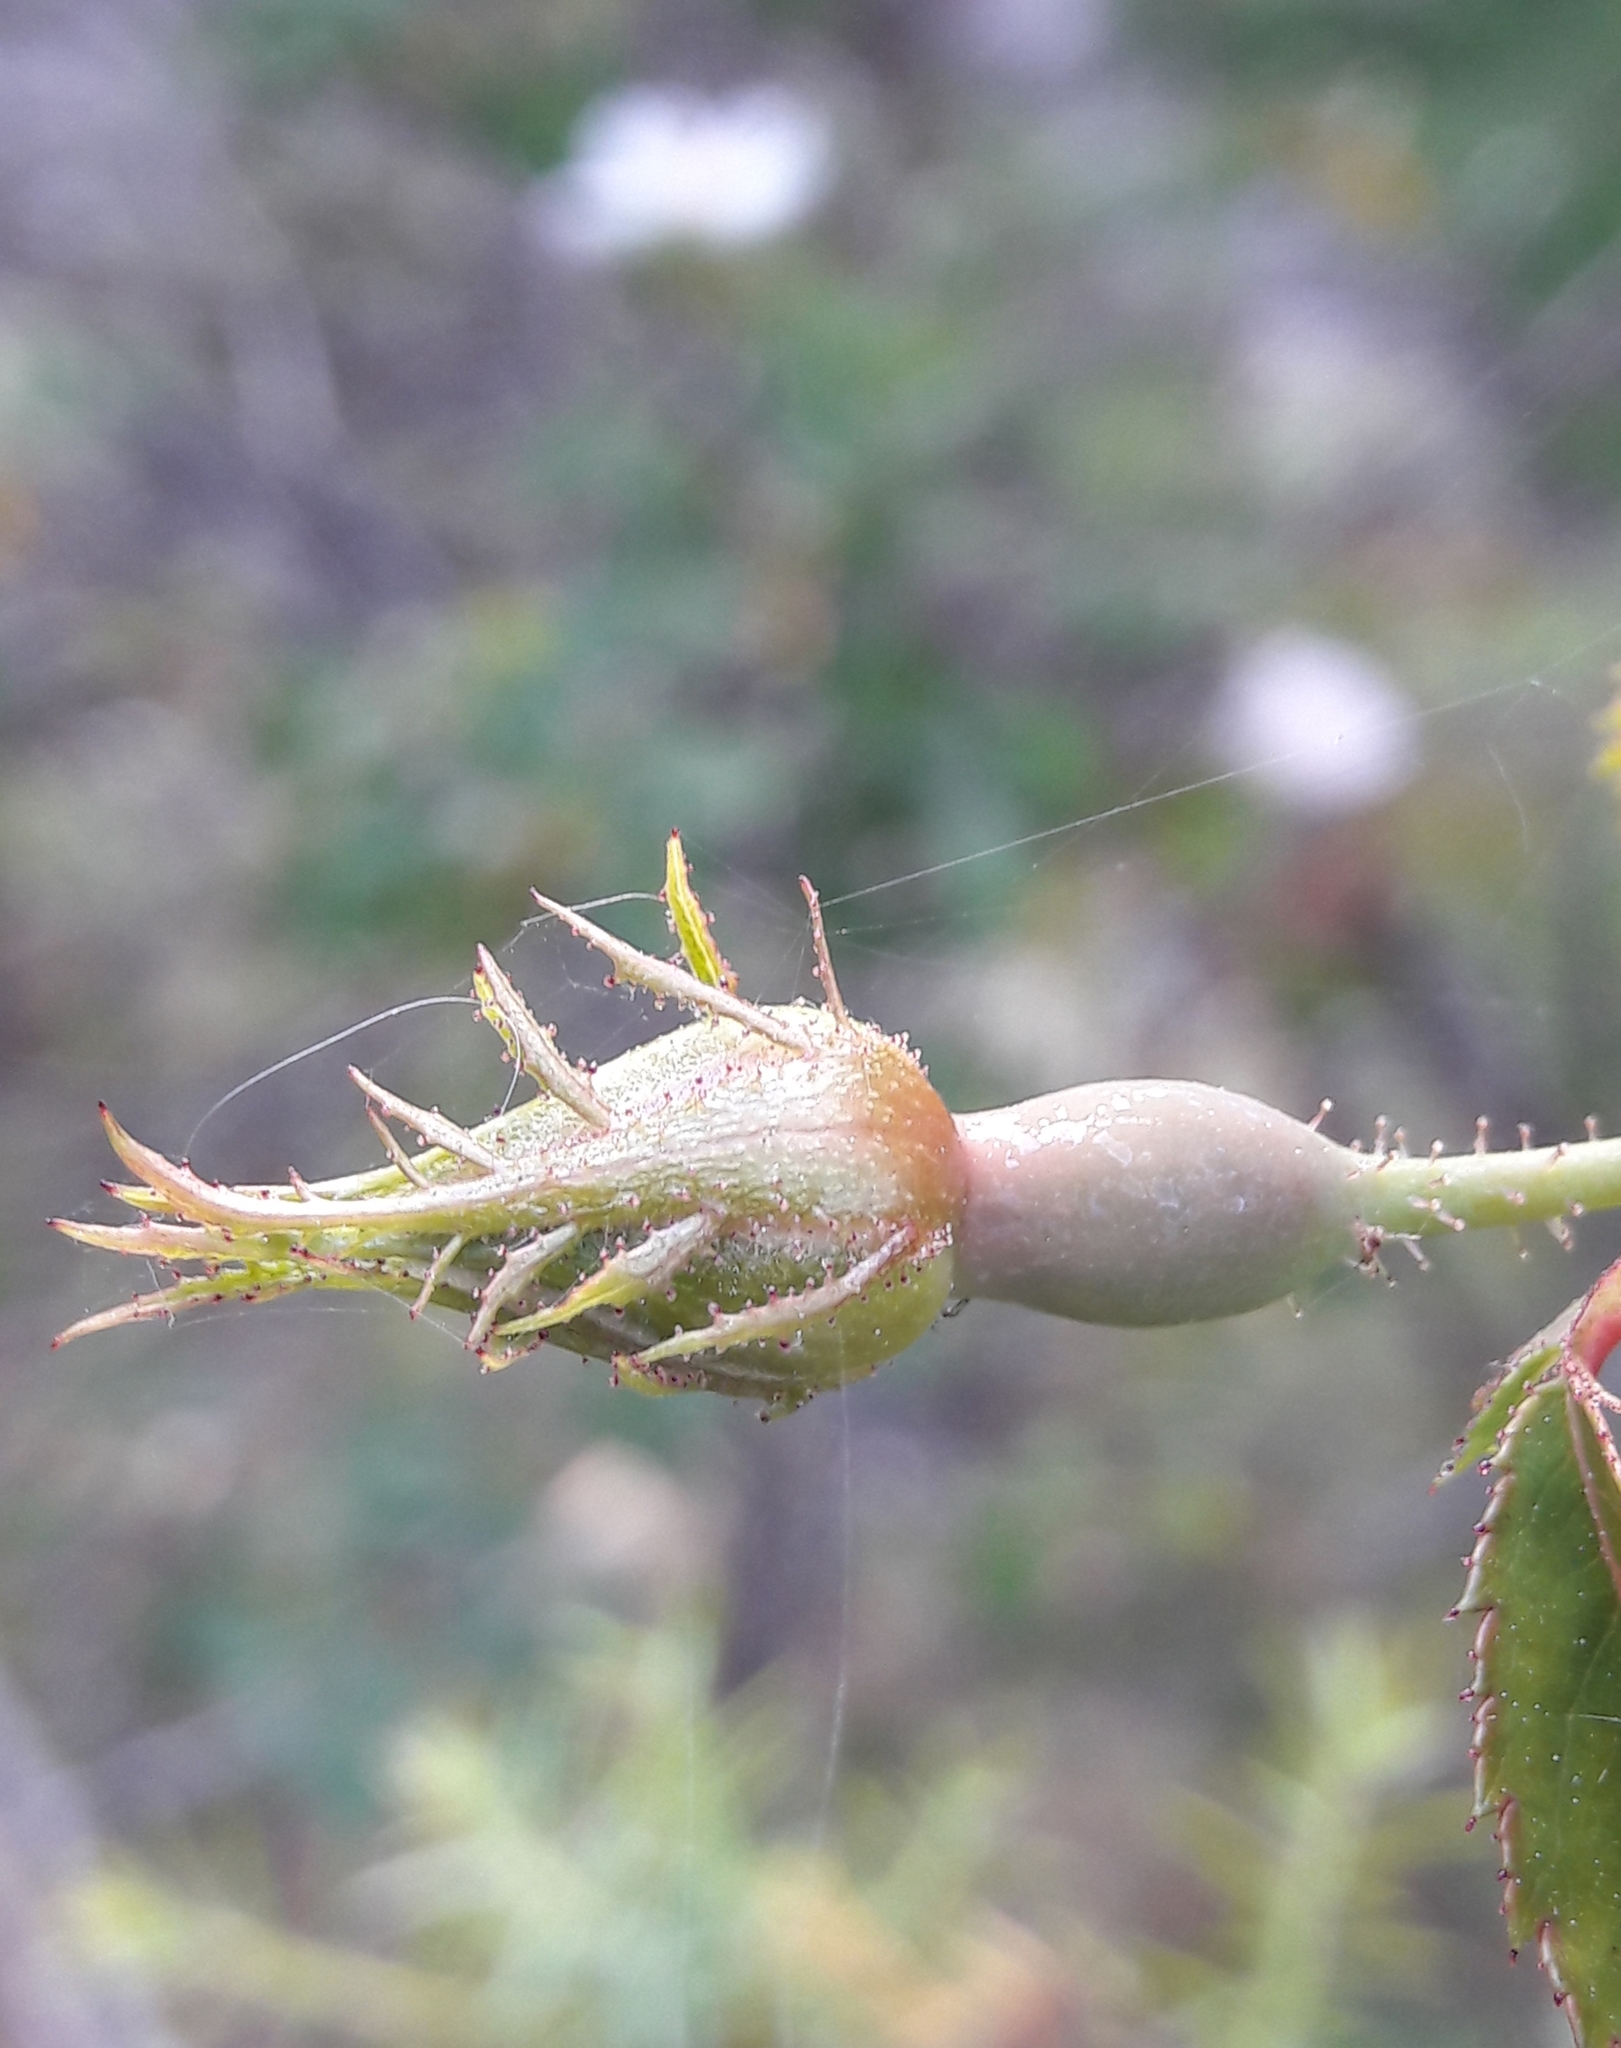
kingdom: Plantae
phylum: Tracheophyta
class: Magnoliopsida
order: Rosales
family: Rosaceae
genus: Rosa
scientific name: Rosa sempervirens
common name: Evergreen rose
